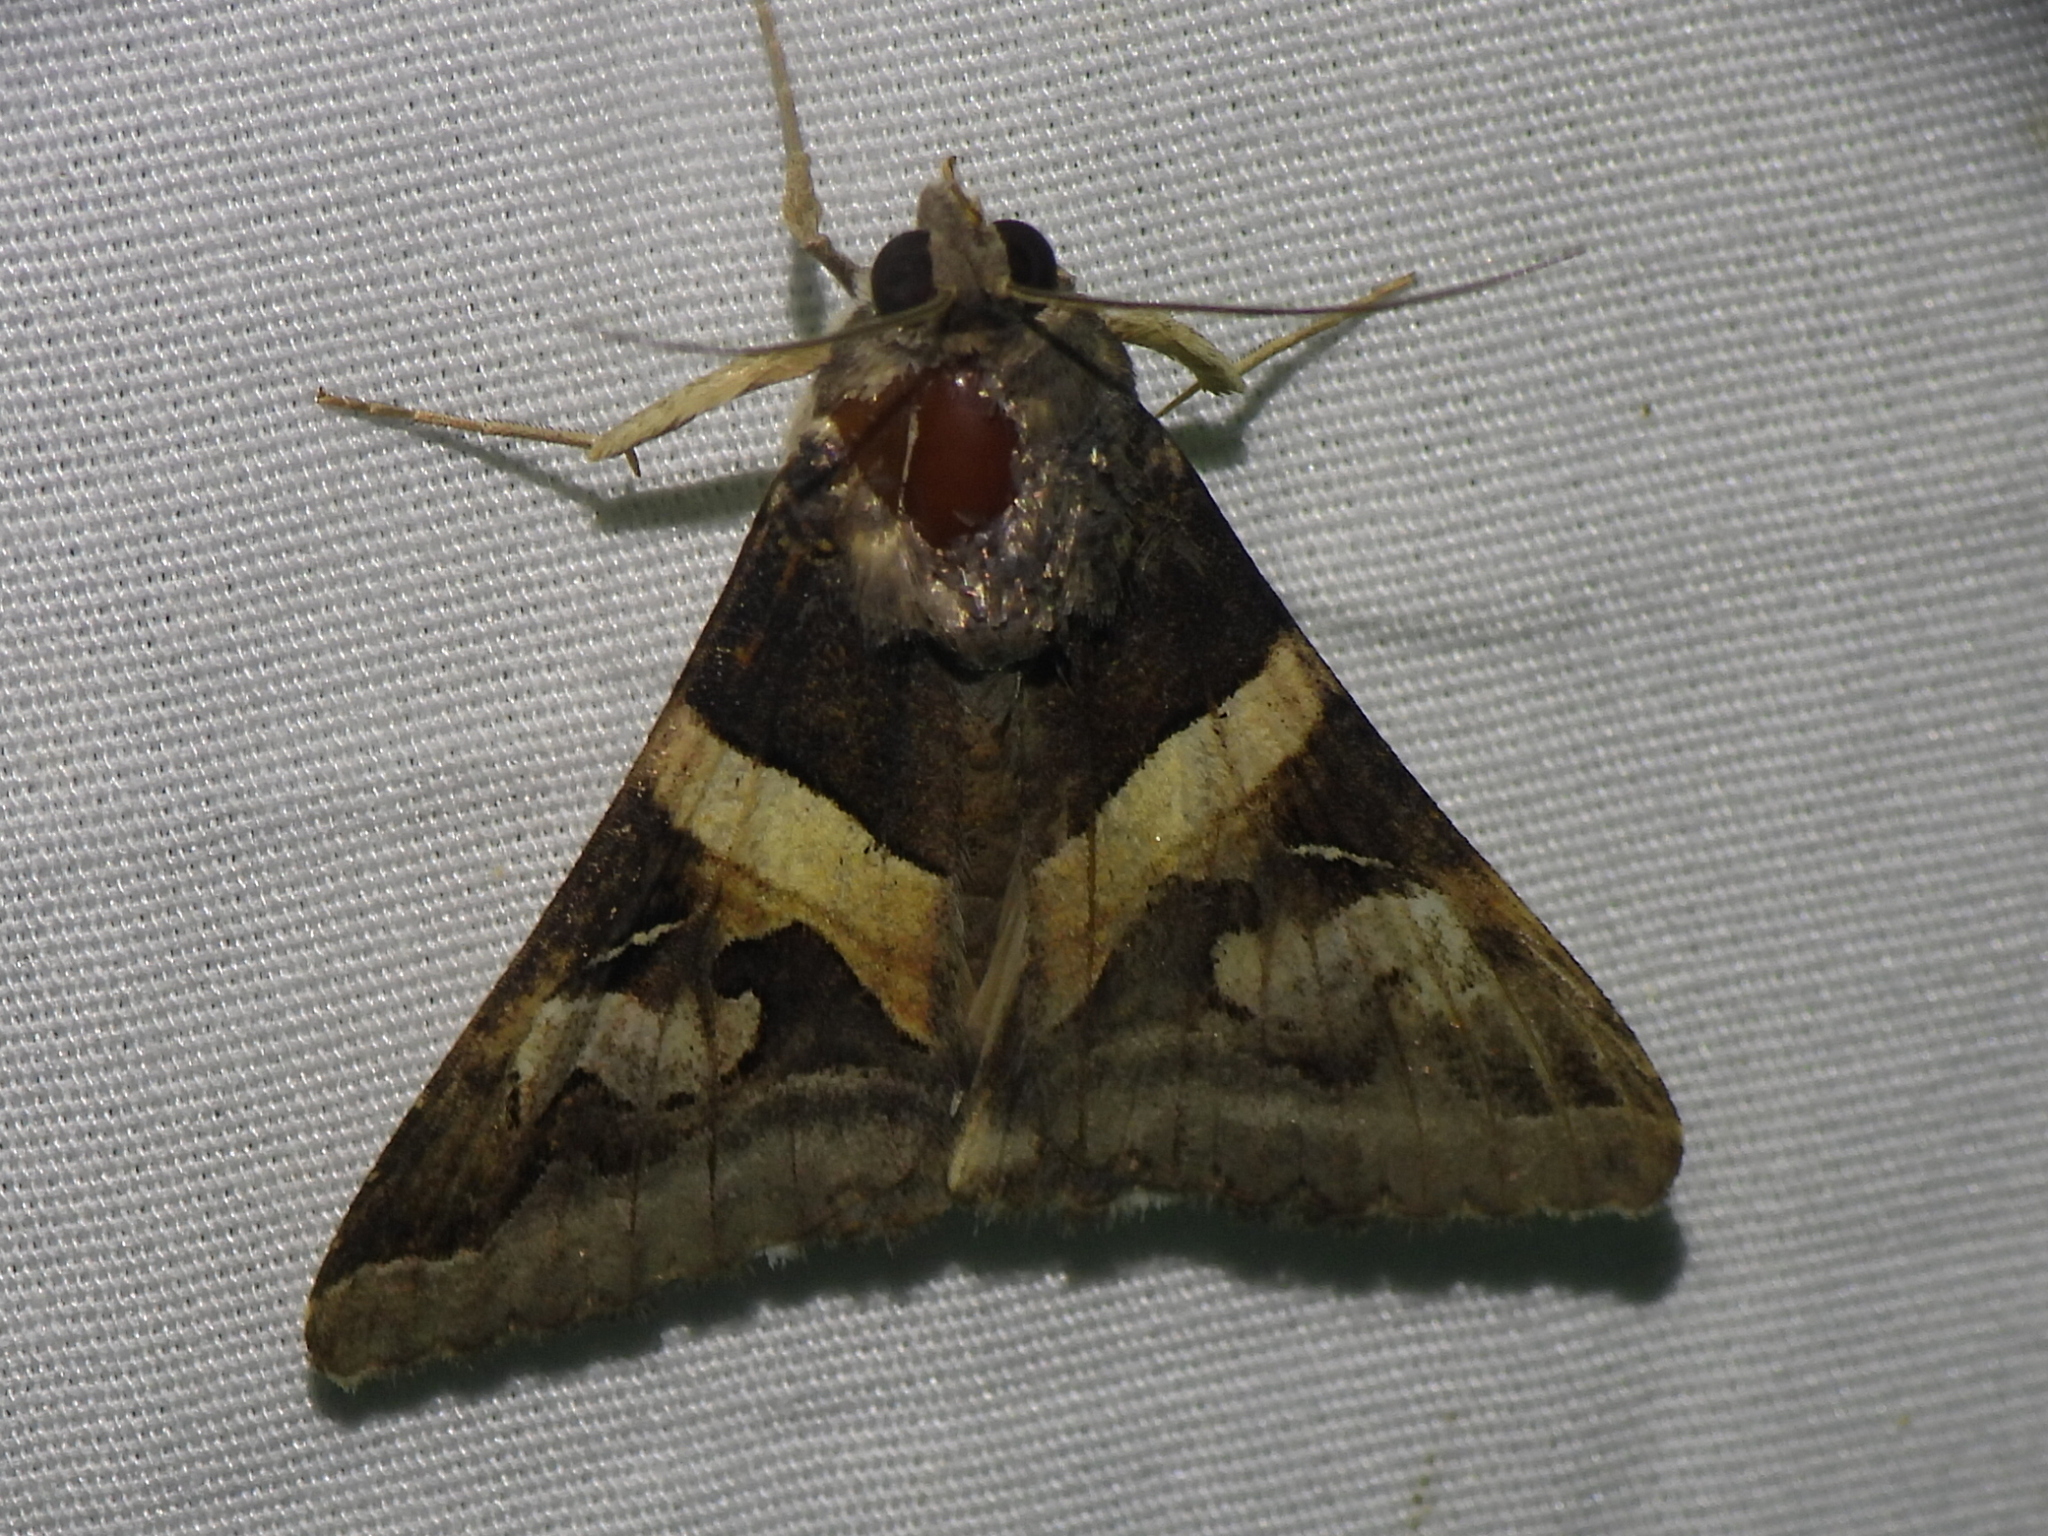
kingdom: Animalia
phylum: Arthropoda
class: Insecta
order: Lepidoptera
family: Erebidae
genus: Melipotis
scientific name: Melipotis indomita
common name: Moth
